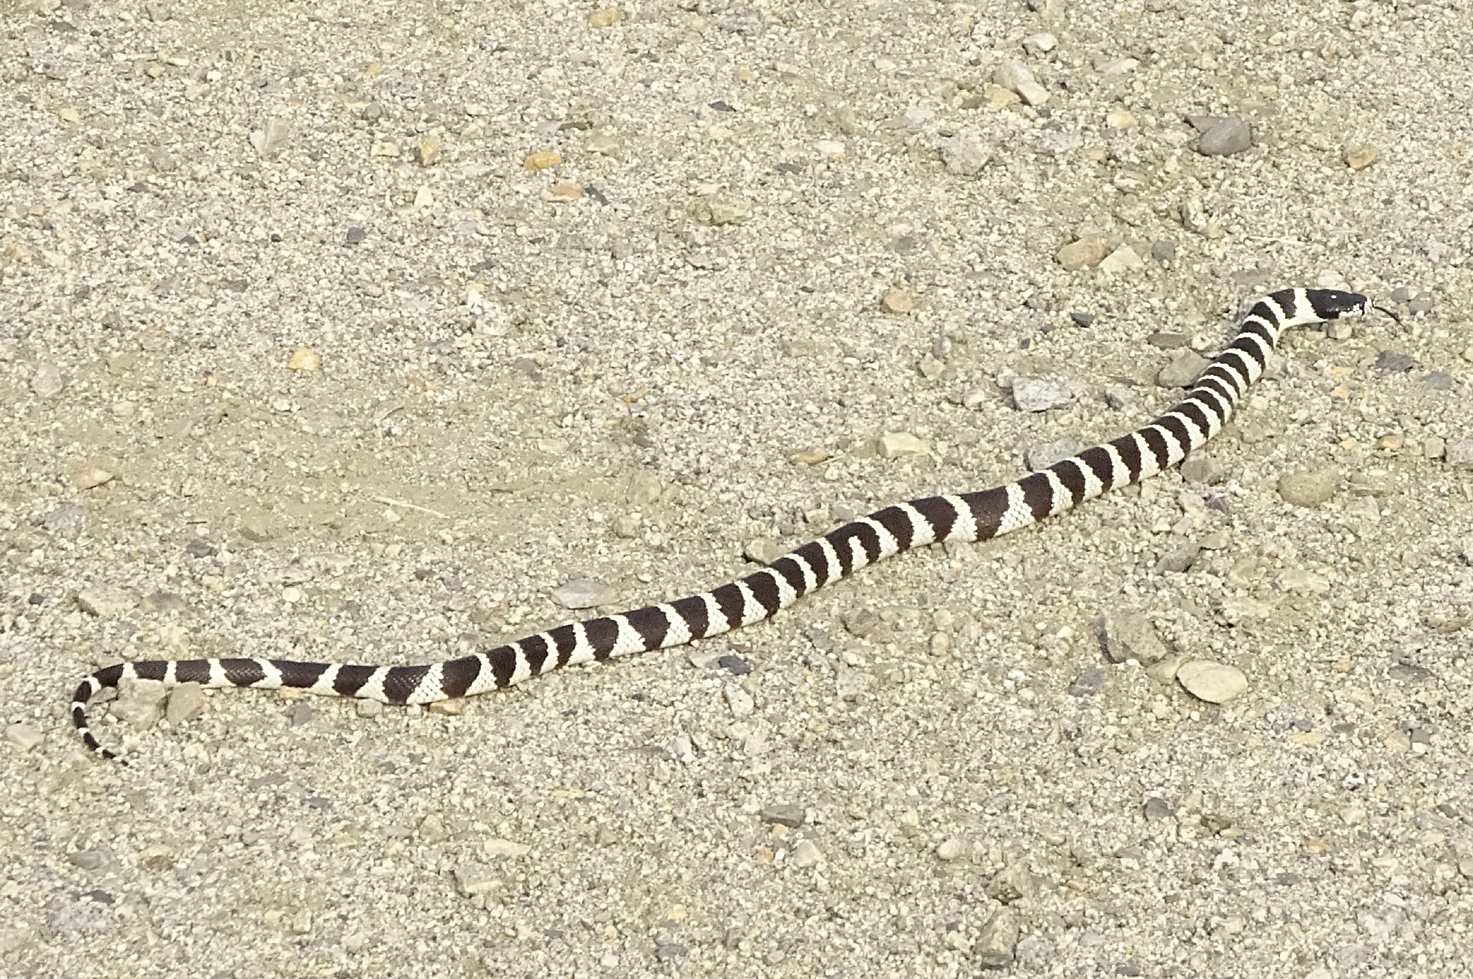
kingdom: Animalia
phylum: Chordata
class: Squamata
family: Colubridae
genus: Lampropeltis
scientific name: Lampropeltis californiae
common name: California kingsnake
